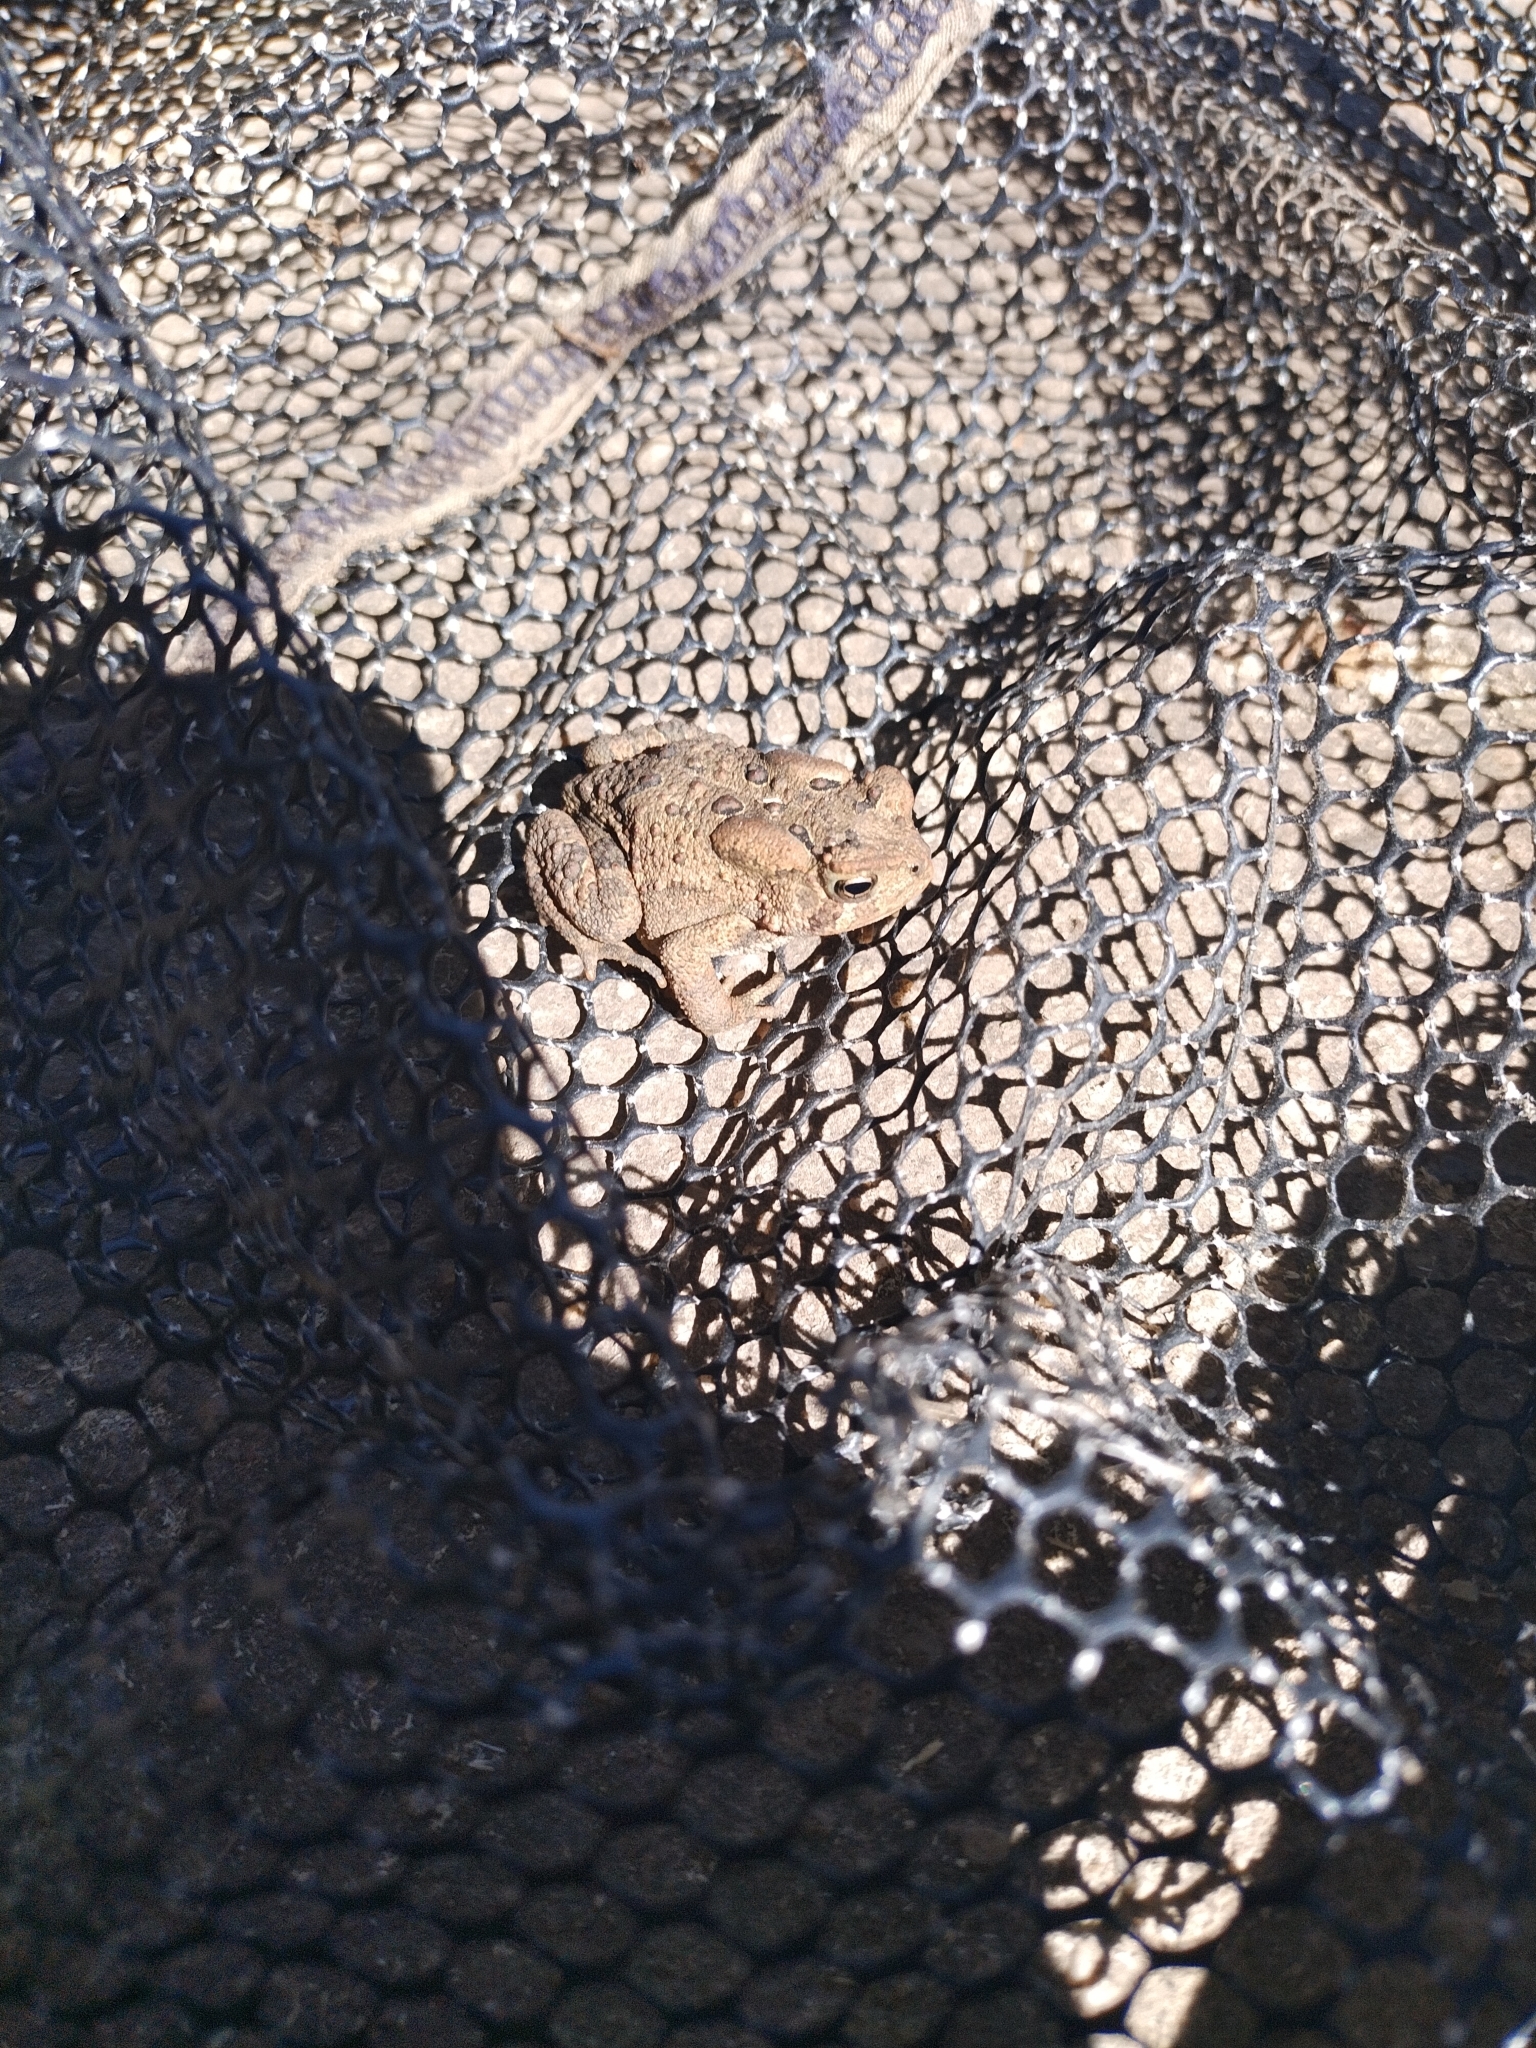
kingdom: Animalia
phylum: Chordata
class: Amphibia
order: Anura
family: Bufonidae
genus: Anaxyrus
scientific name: Anaxyrus americanus
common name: American toad
